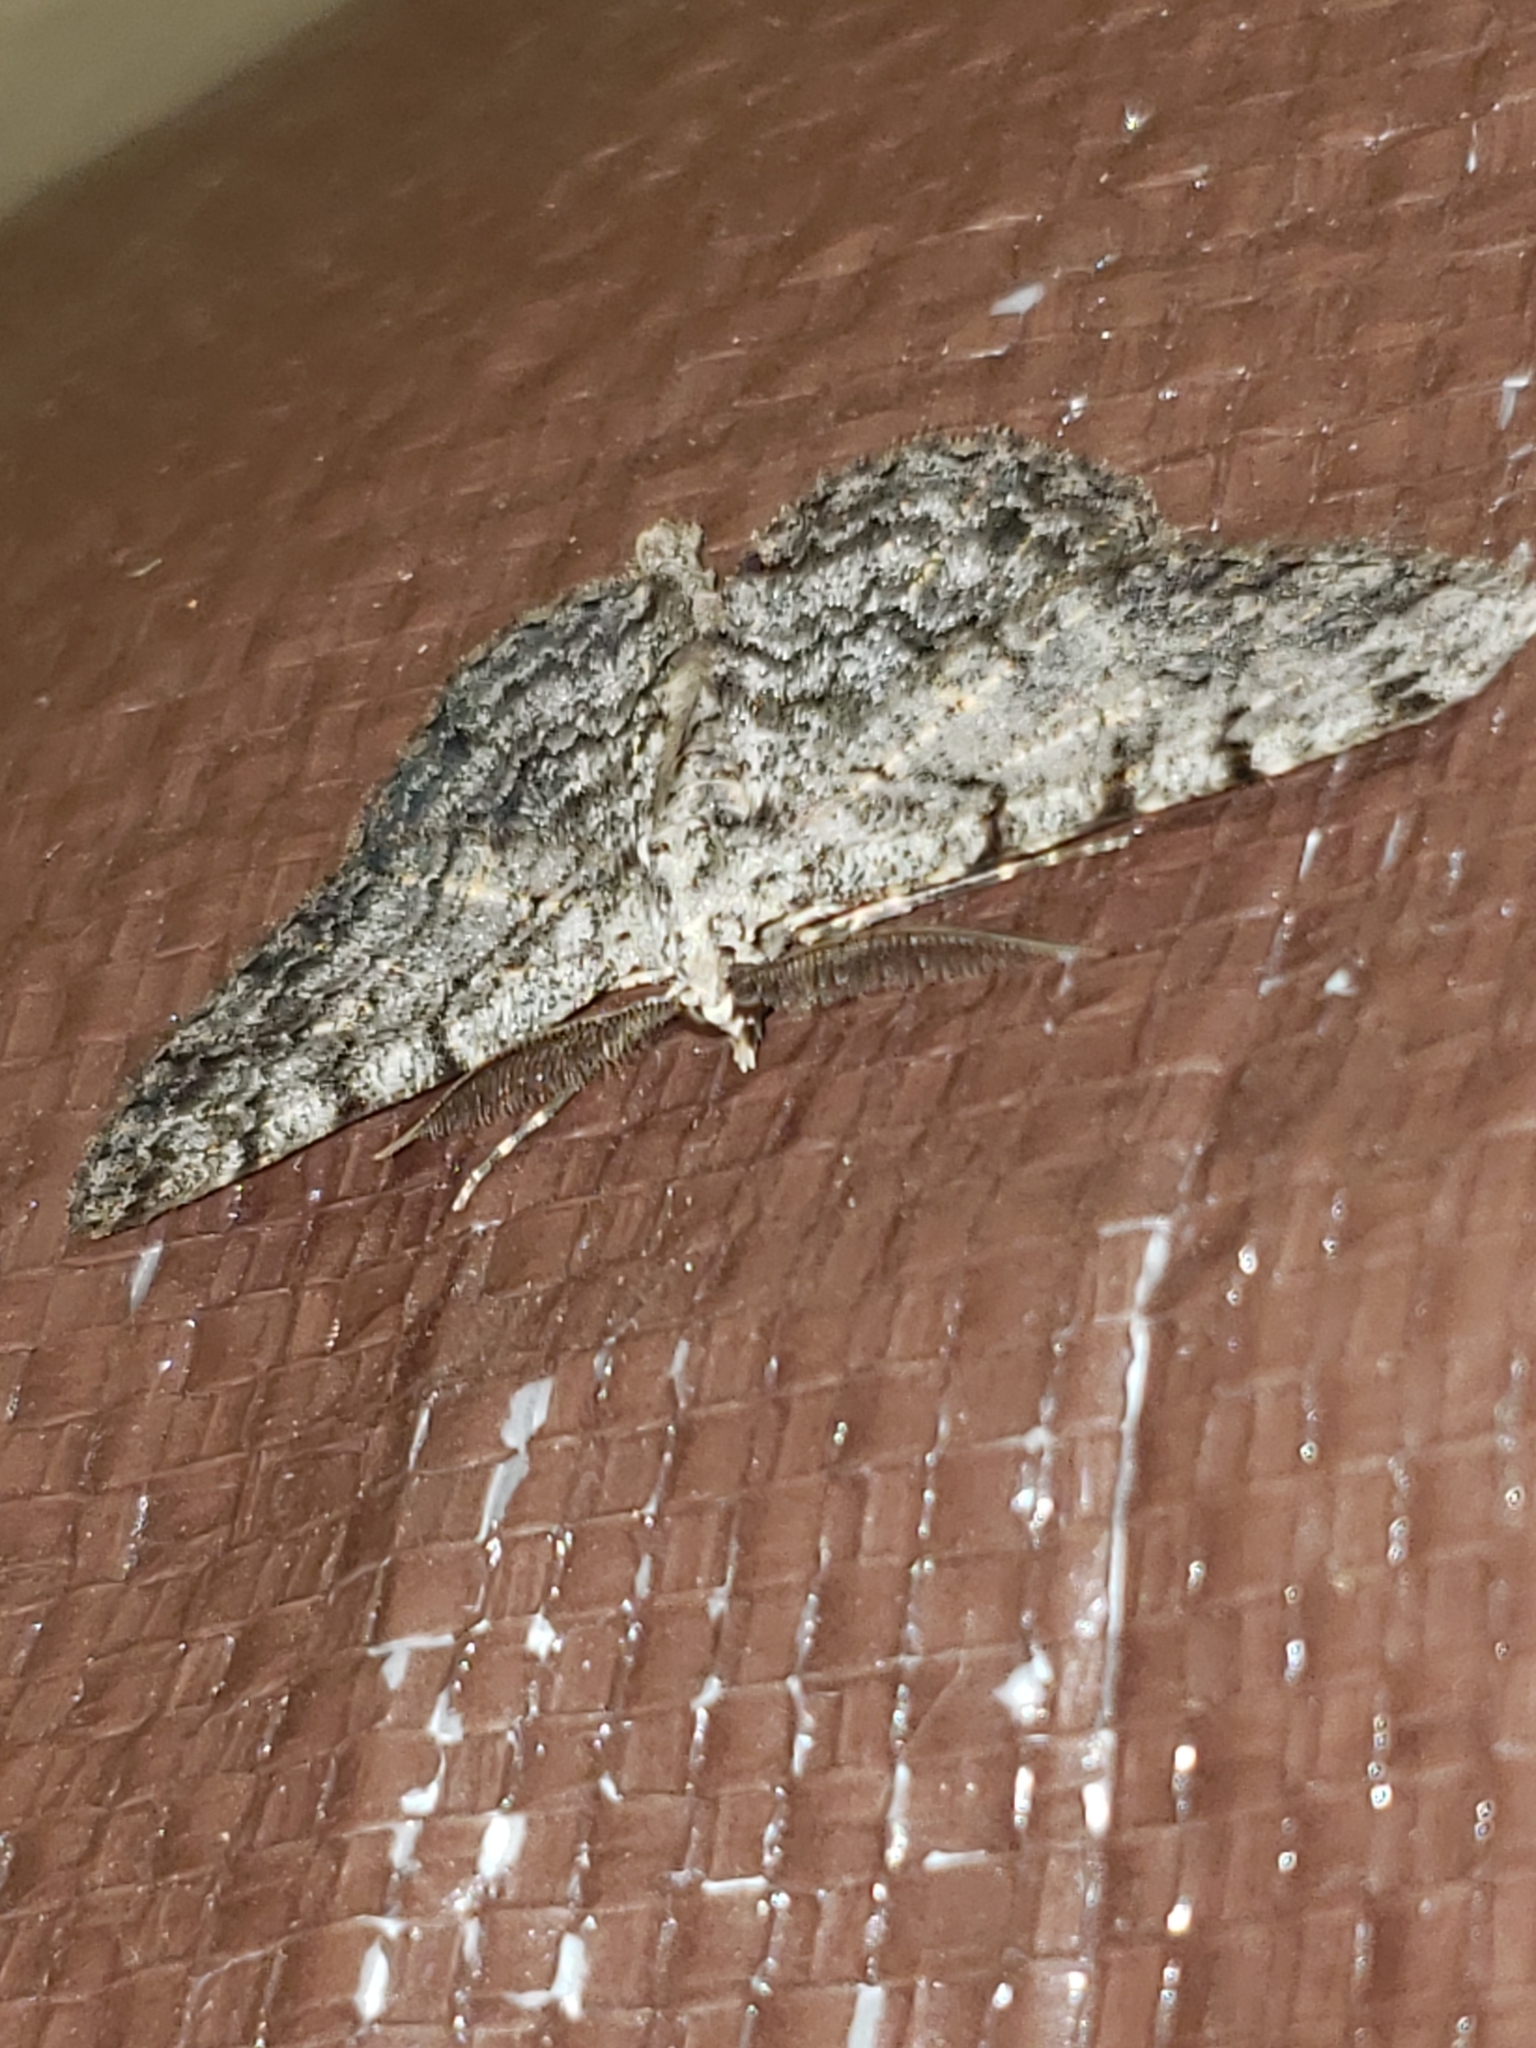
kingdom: Animalia
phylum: Arthropoda
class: Insecta
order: Lepidoptera
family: Geometridae
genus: Protoboarmia
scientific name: Protoboarmia porcelaria
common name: Porcelain gray
